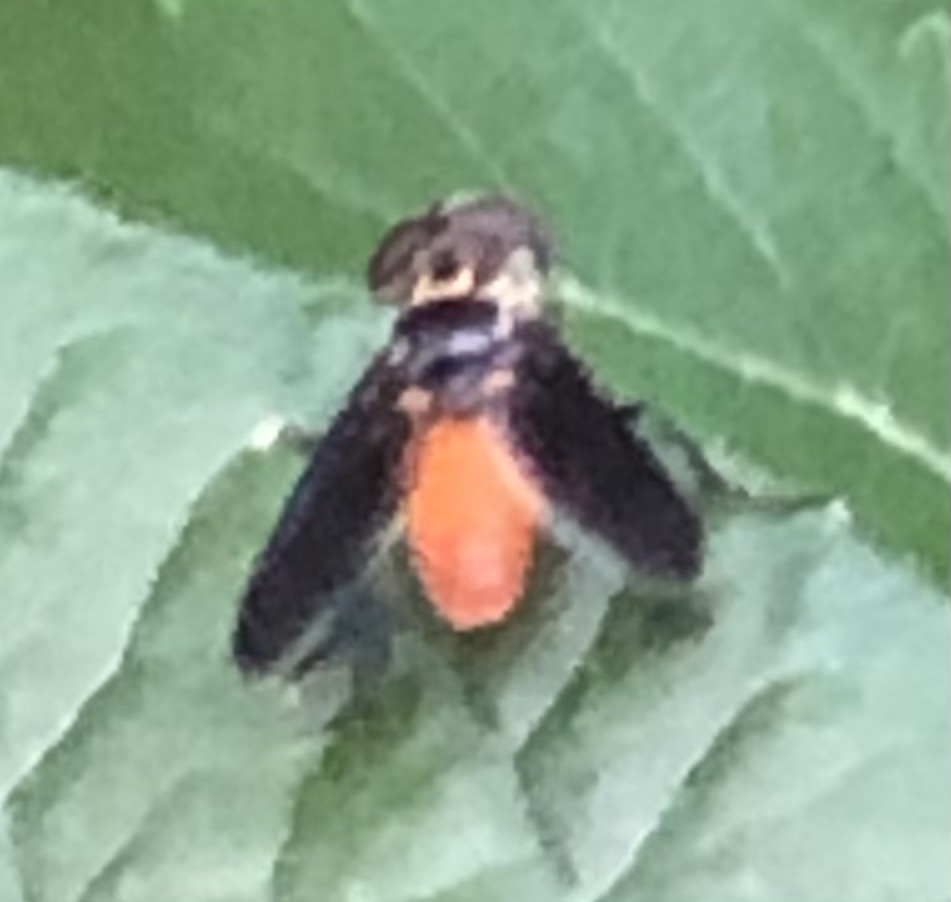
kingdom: Animalia
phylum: Arthropoda
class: Insecta
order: Diptera
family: Tachinidae
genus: Trichopoda
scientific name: Trichopoda pennipes
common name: Tachinid fly
